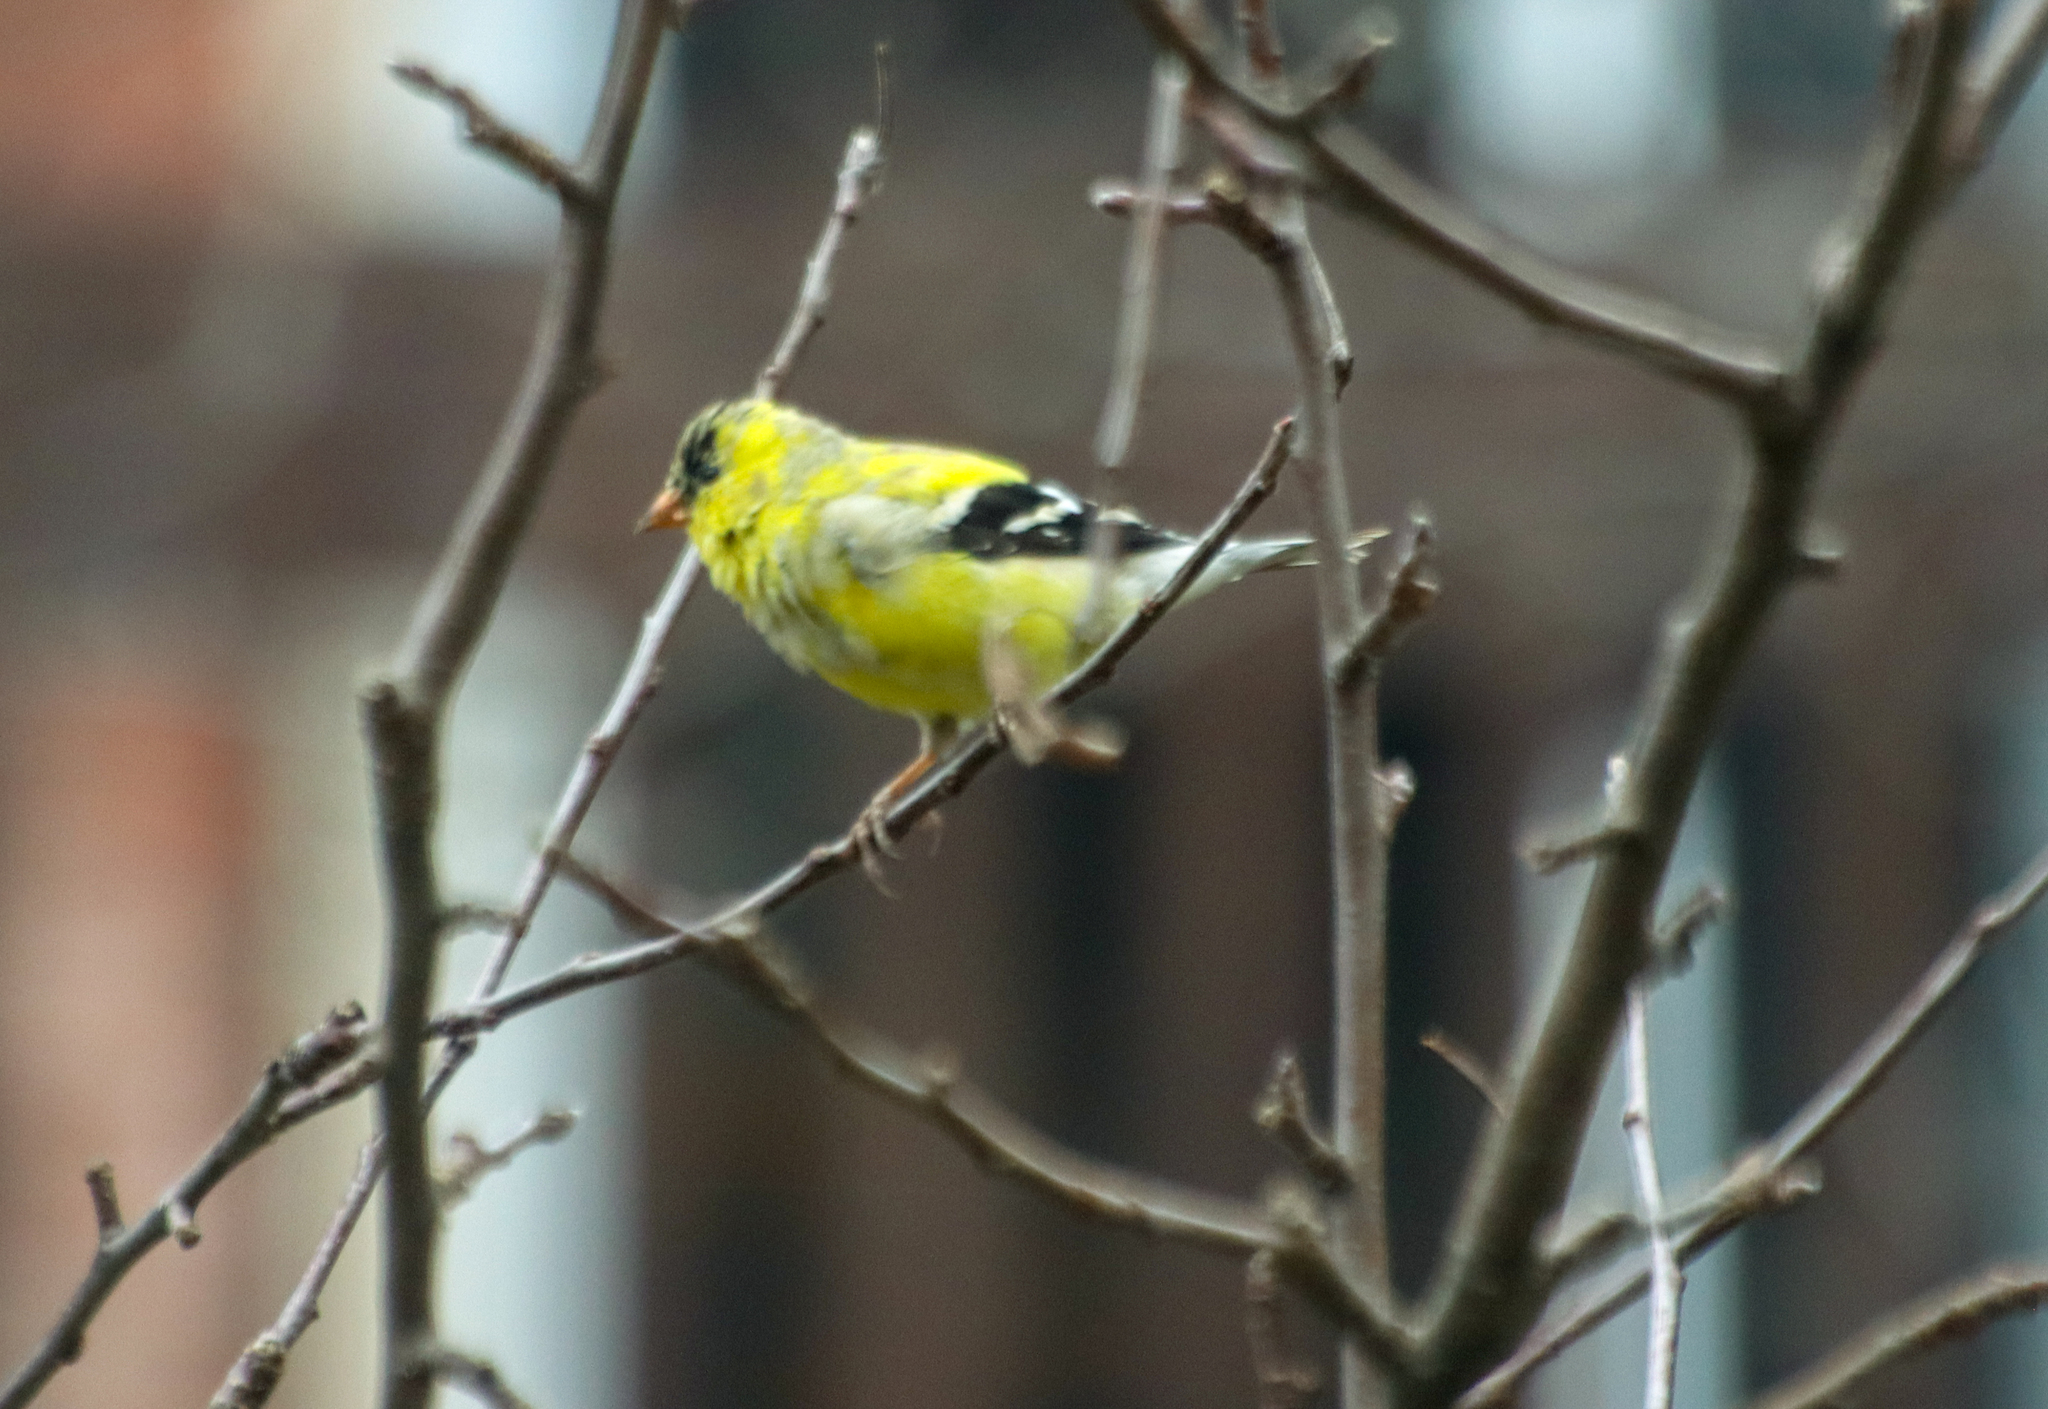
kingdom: Animalia
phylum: Chordata
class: Aves
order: Passeriformes
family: Fringillidae
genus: Spinus
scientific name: Spinus tristis
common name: American goldfinch
